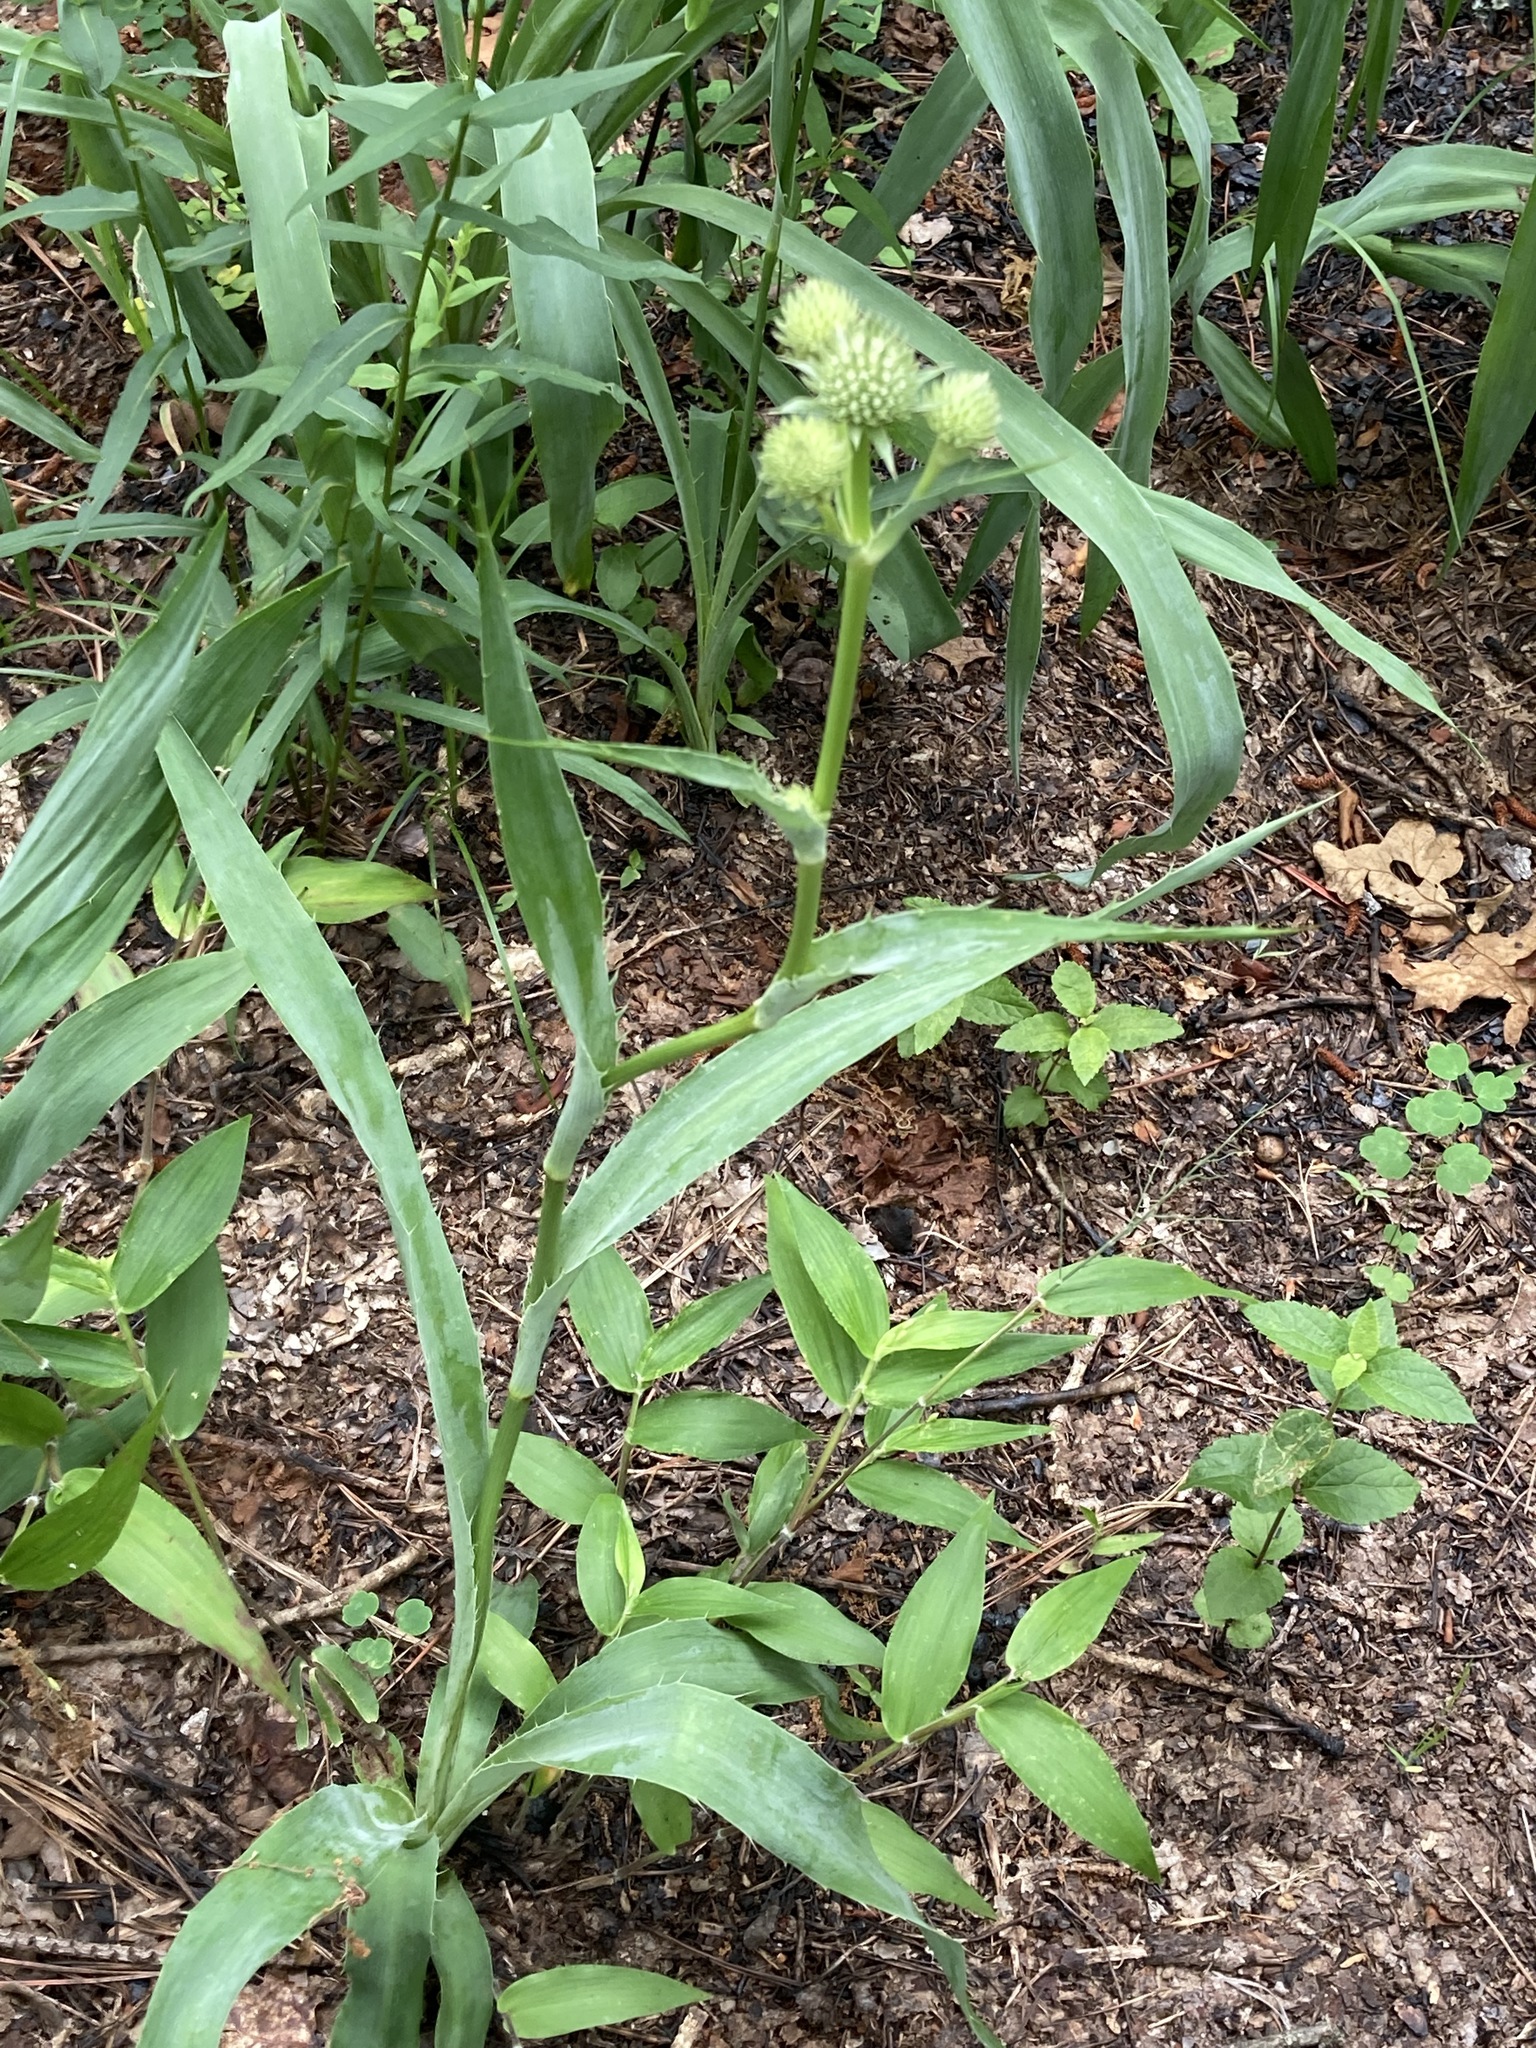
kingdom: Plantae
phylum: Tracheophyta
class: Magnoliopsida
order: Apiales
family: Apiaceae
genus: Eryngium
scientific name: Eryngium yuccifolium
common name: Button eryngo
